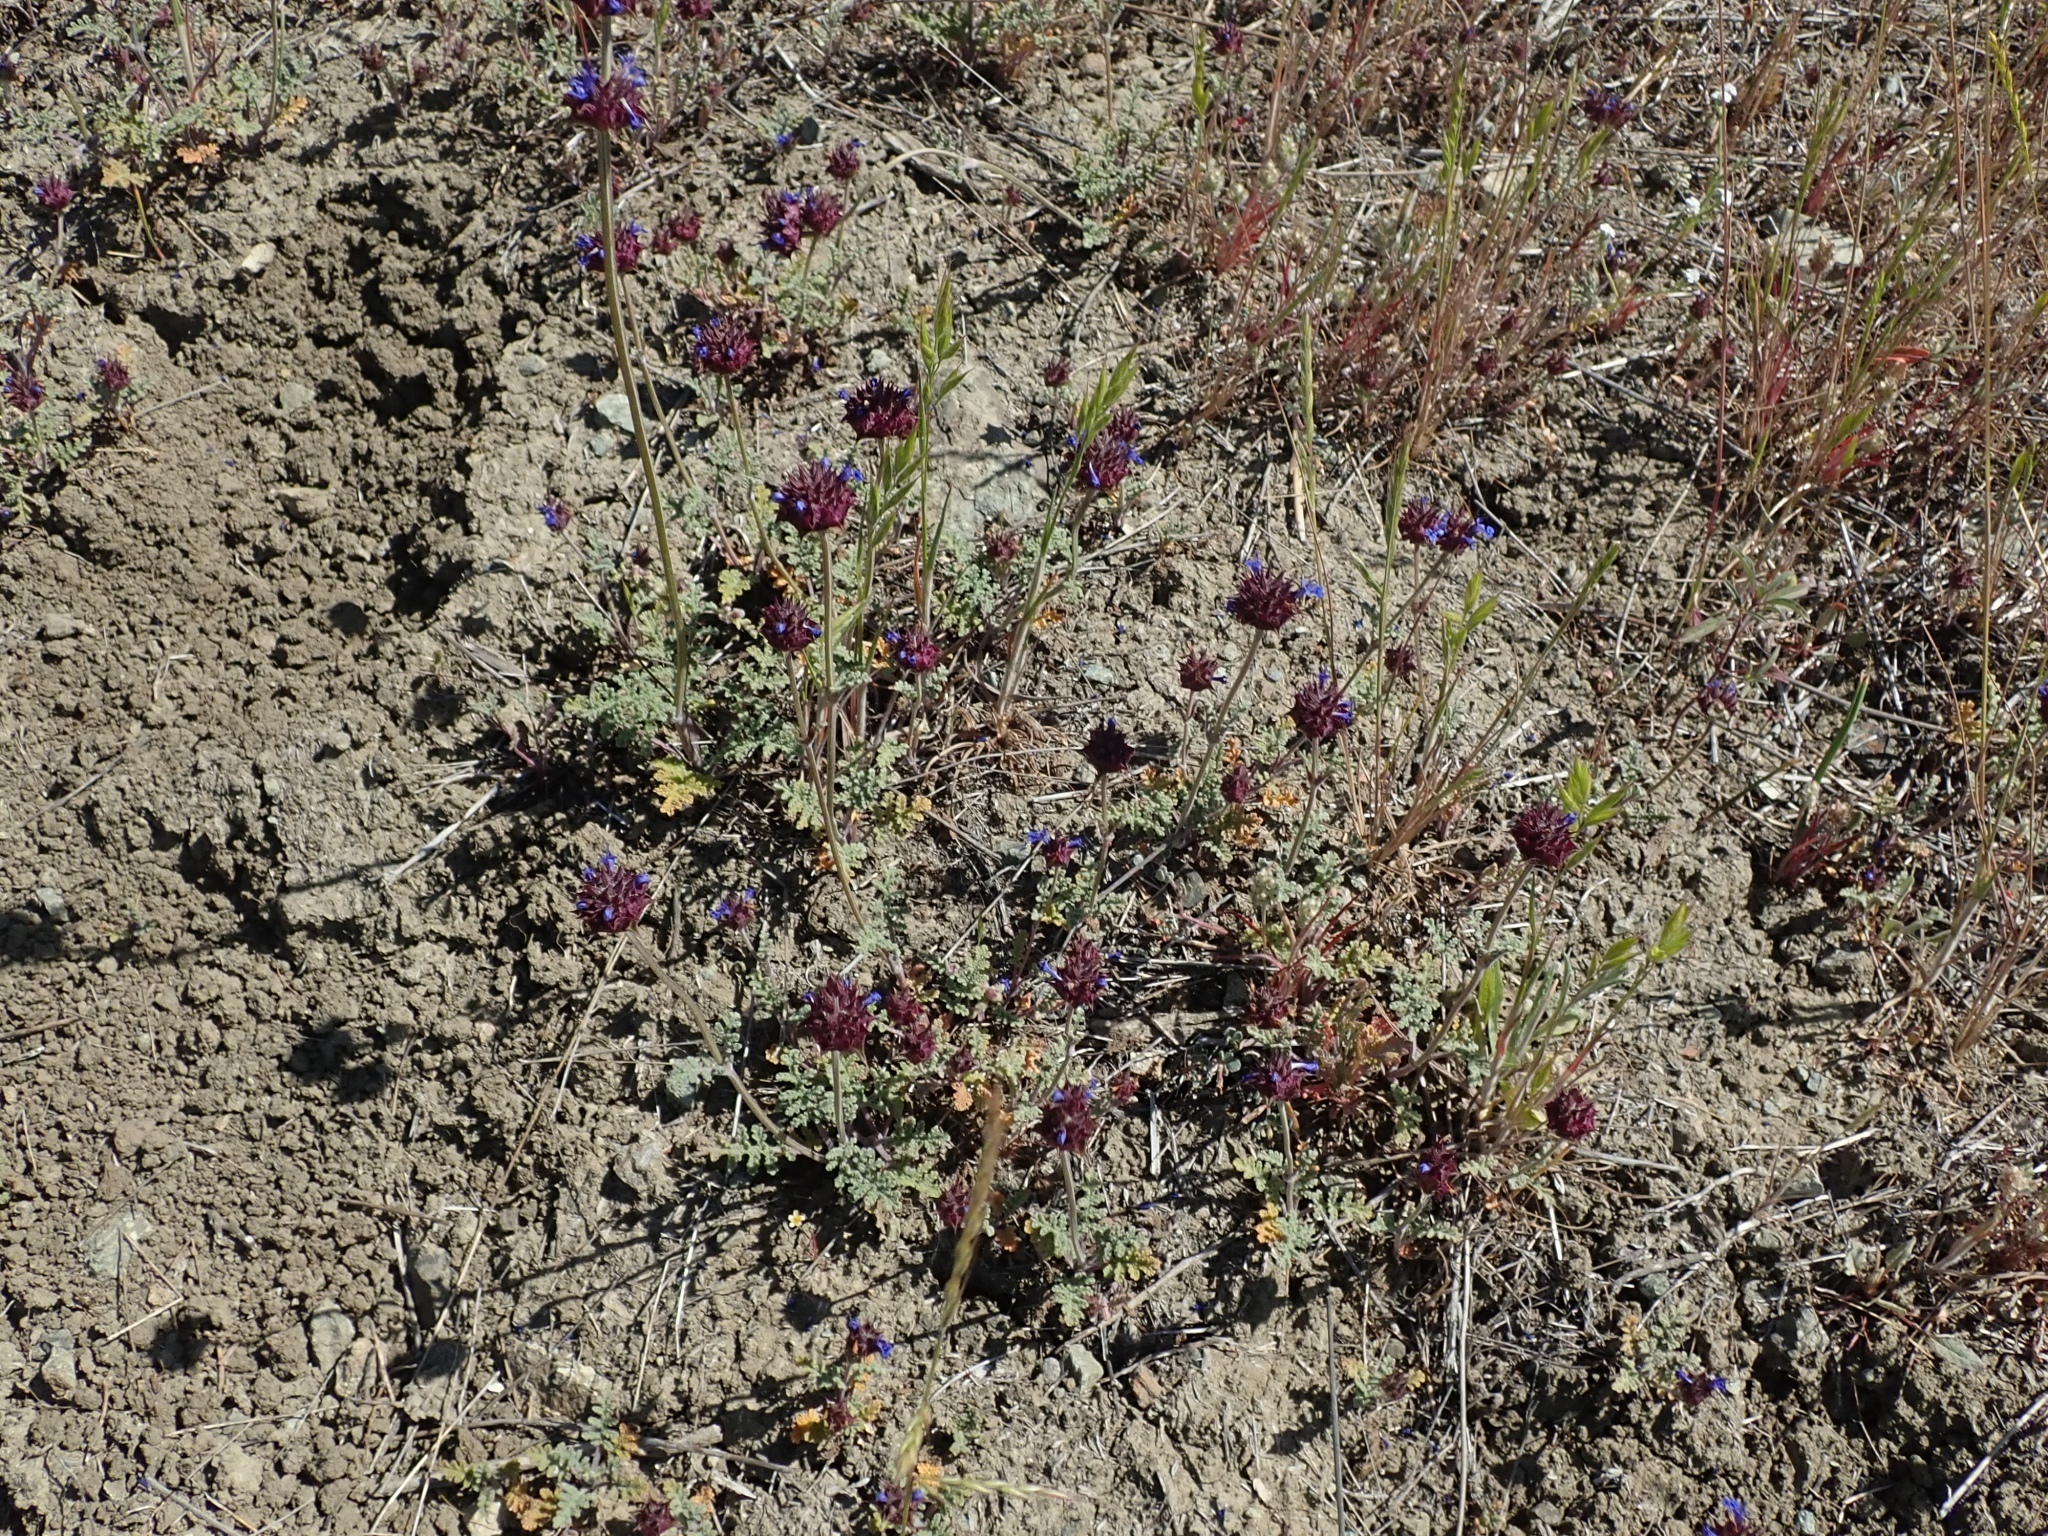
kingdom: Plantae
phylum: Tracheophyta
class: Magnoliopsida
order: Lamiales
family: Lamiaceae
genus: Salvia
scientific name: Salvia columbariae
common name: Chia
